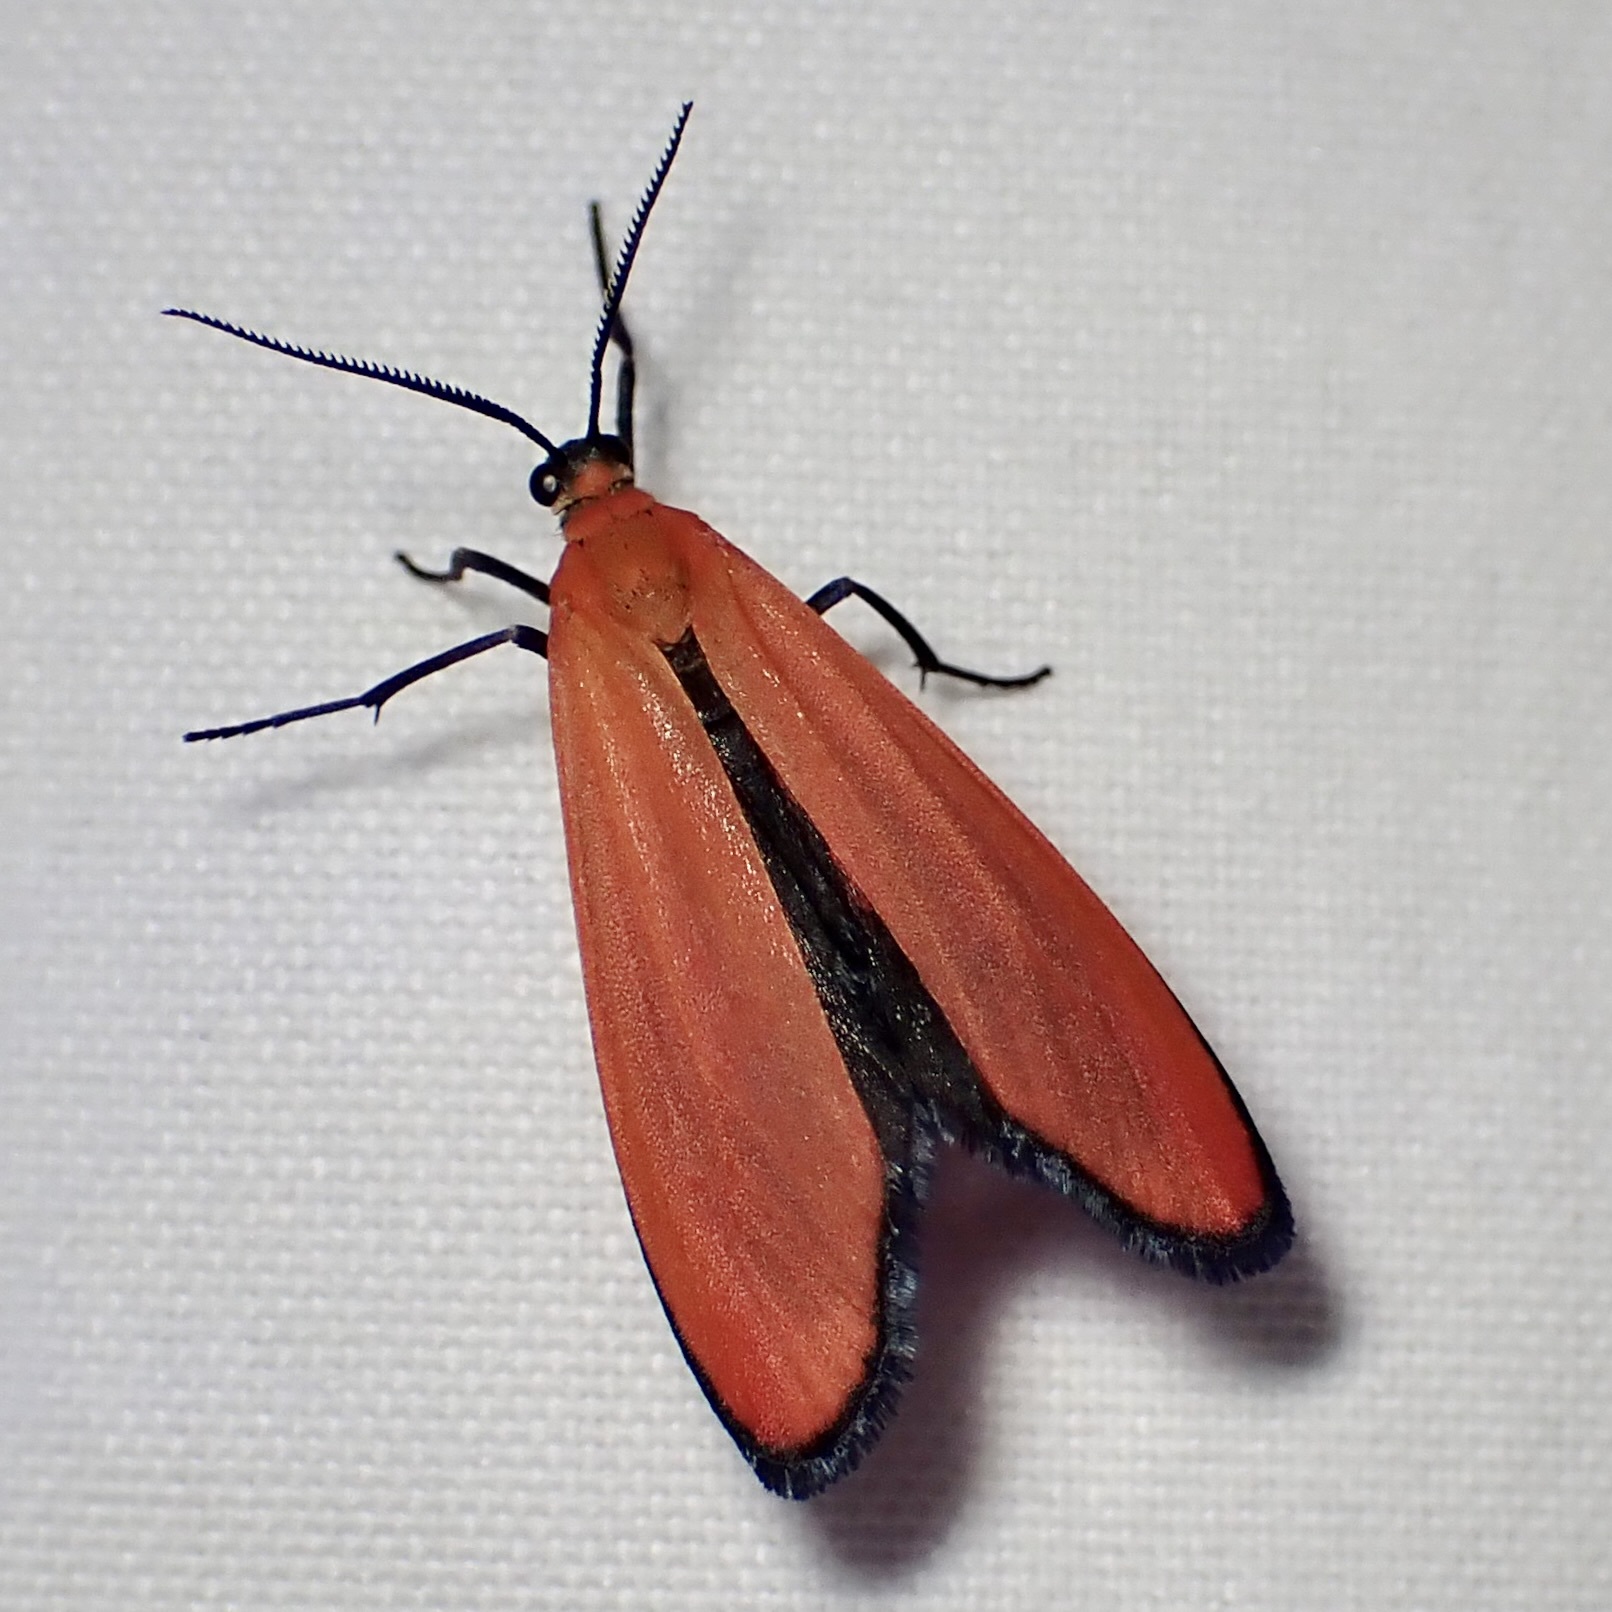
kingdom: Animalia
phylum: Arthropoda
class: Insecta
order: Lepidoptera
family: Erebidae
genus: Lycomorpha
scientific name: Lycomorpha regulus
